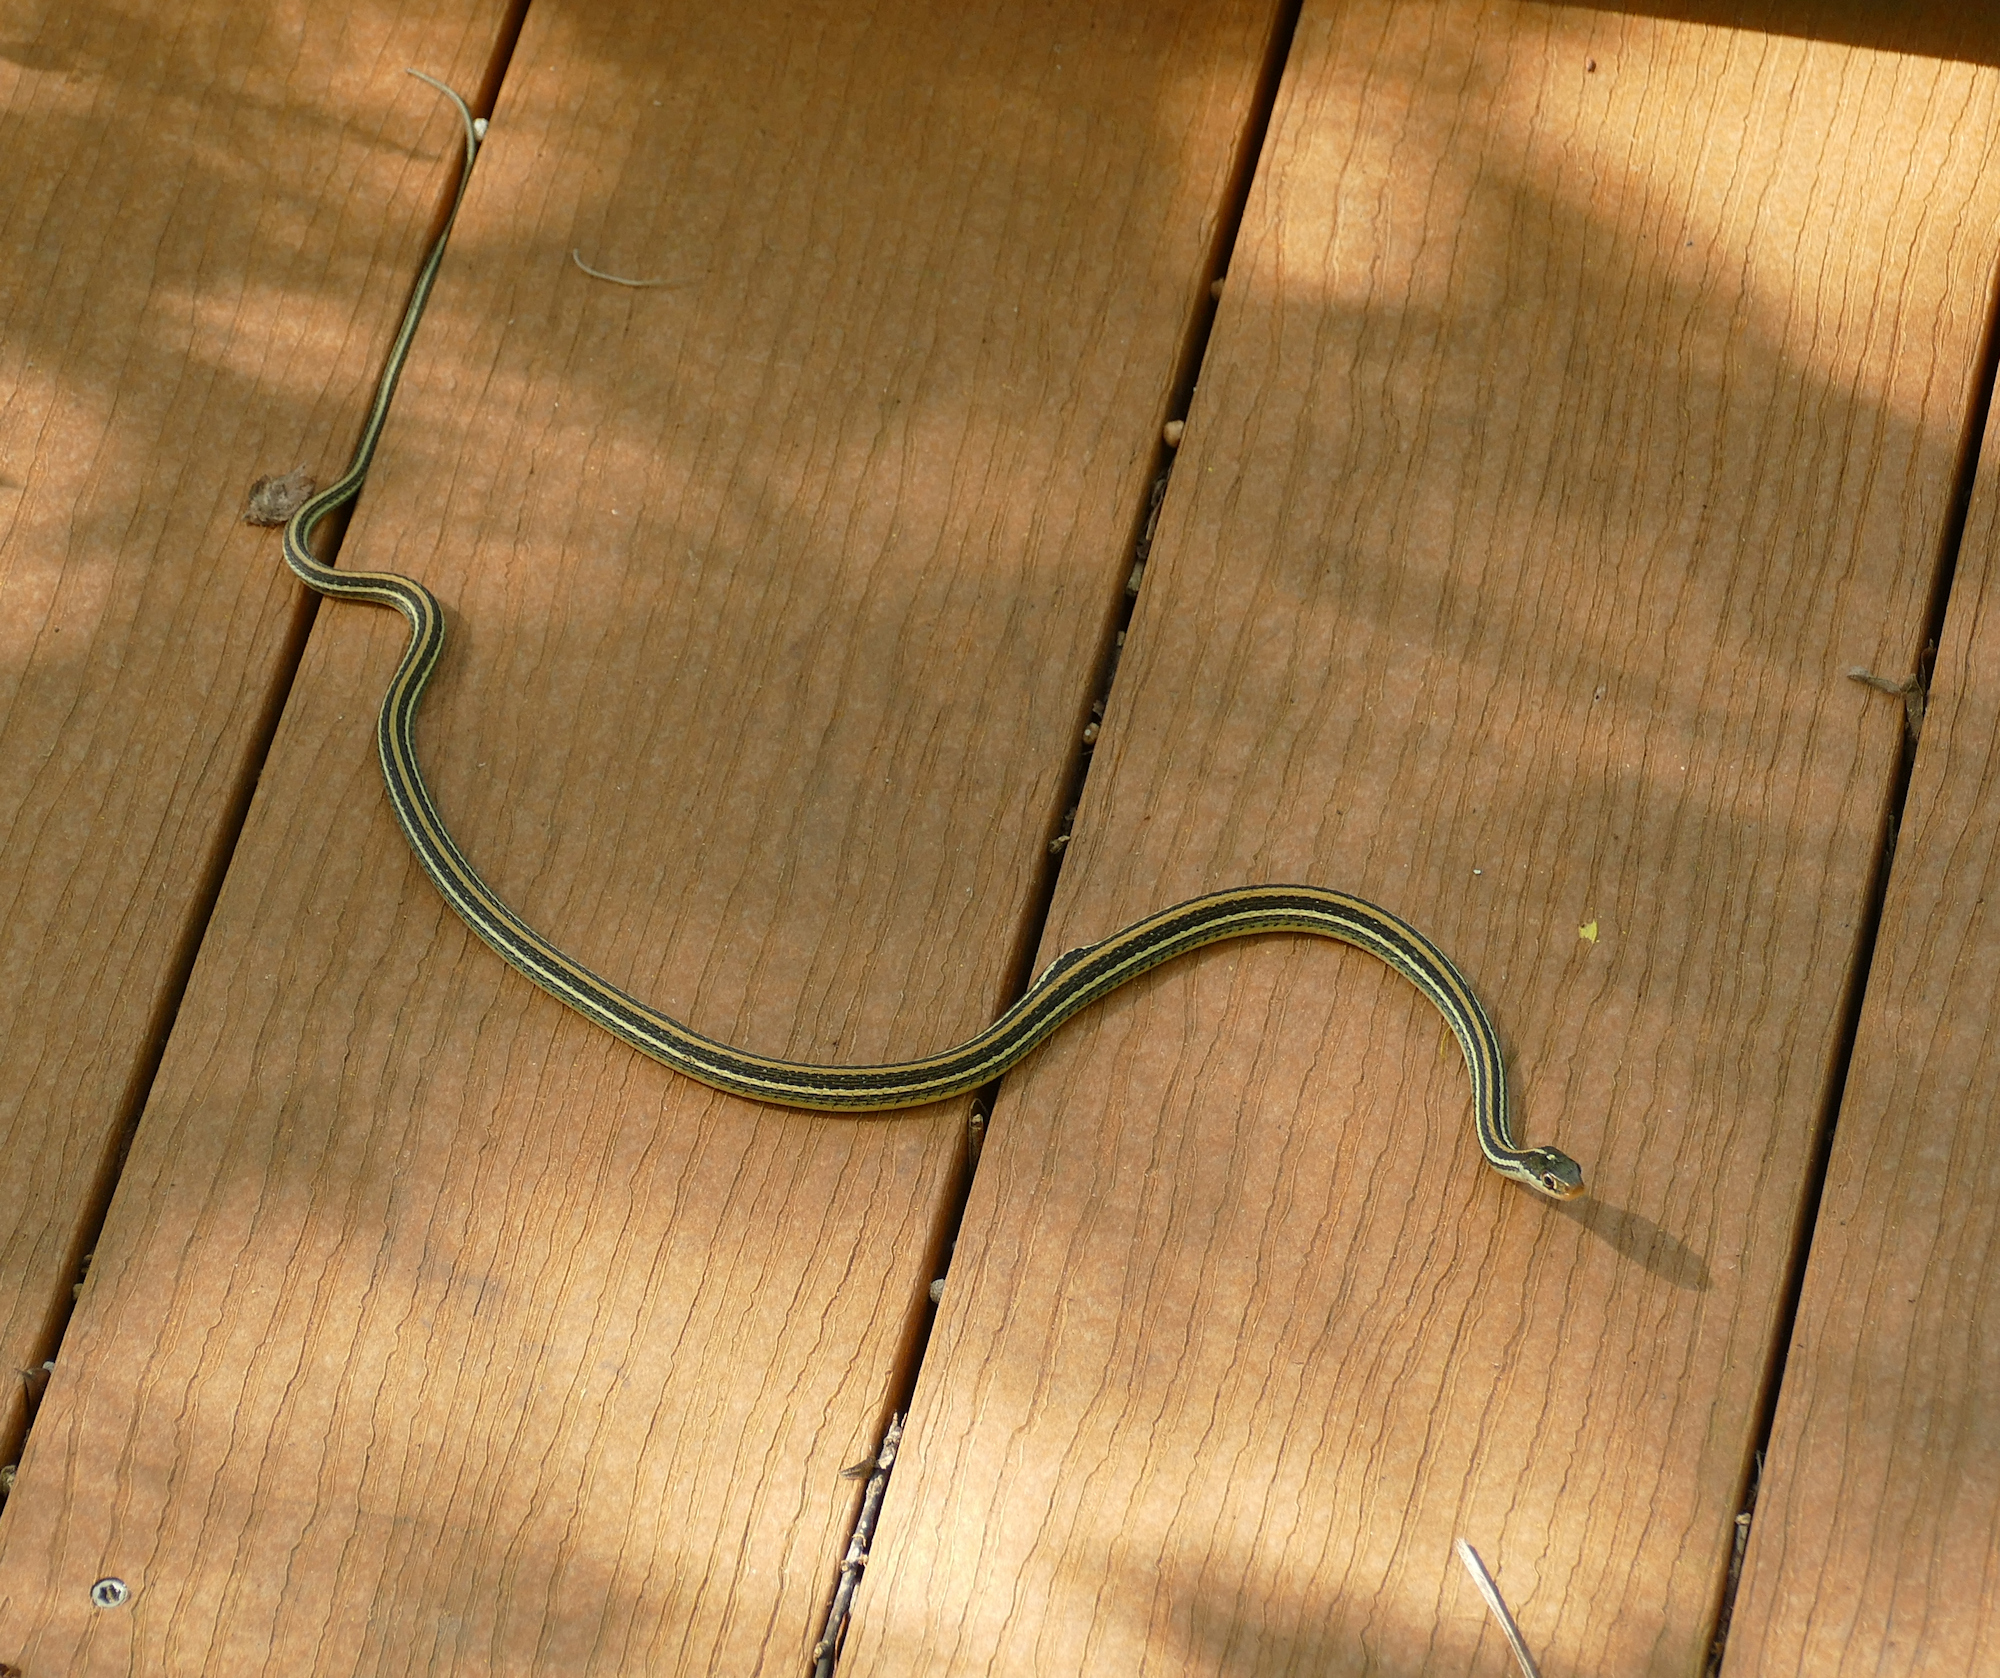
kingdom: Animalia
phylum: Chordata
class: Squamata
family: Colubridae
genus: Thamnophis
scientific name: Thamnophis proximus
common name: Western ribbon snake
